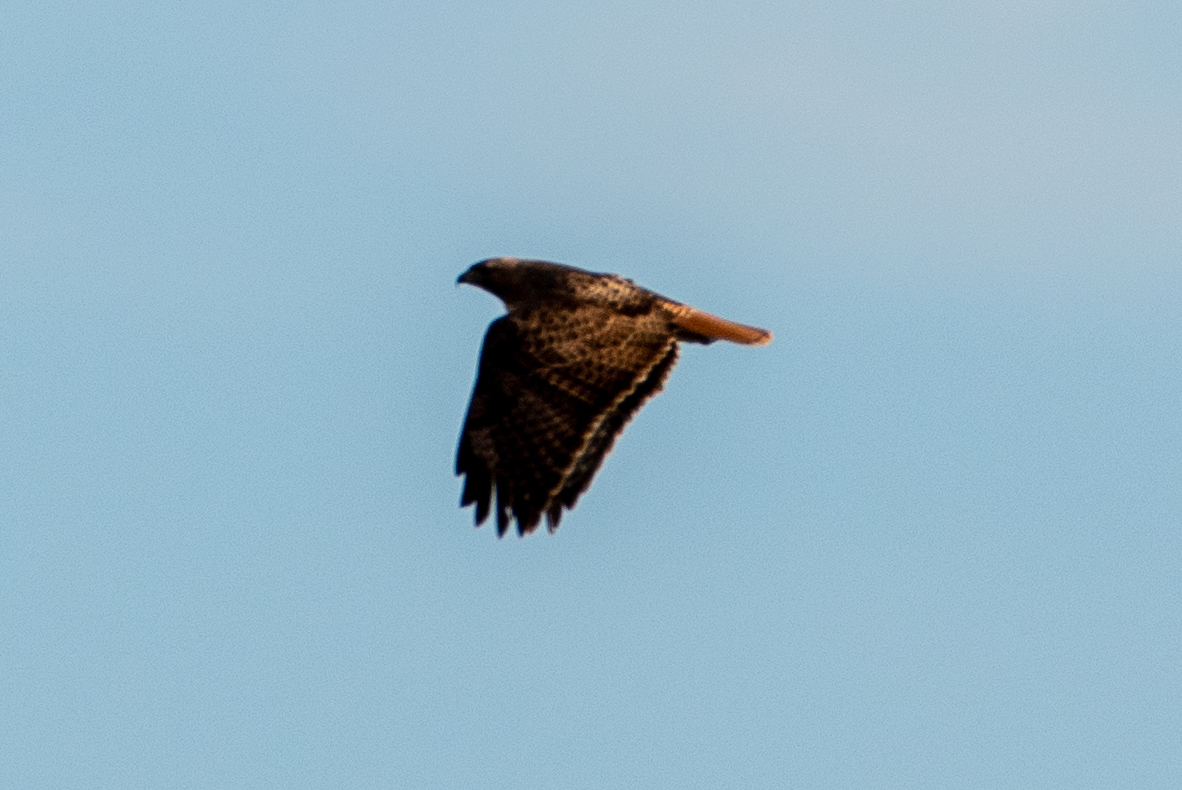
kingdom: Animalia
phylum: Chordata
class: Aves
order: Accipitriformes
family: Accipitridae
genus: Buteo
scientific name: Buteo jamaicensis
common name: Red-tailed hawk
